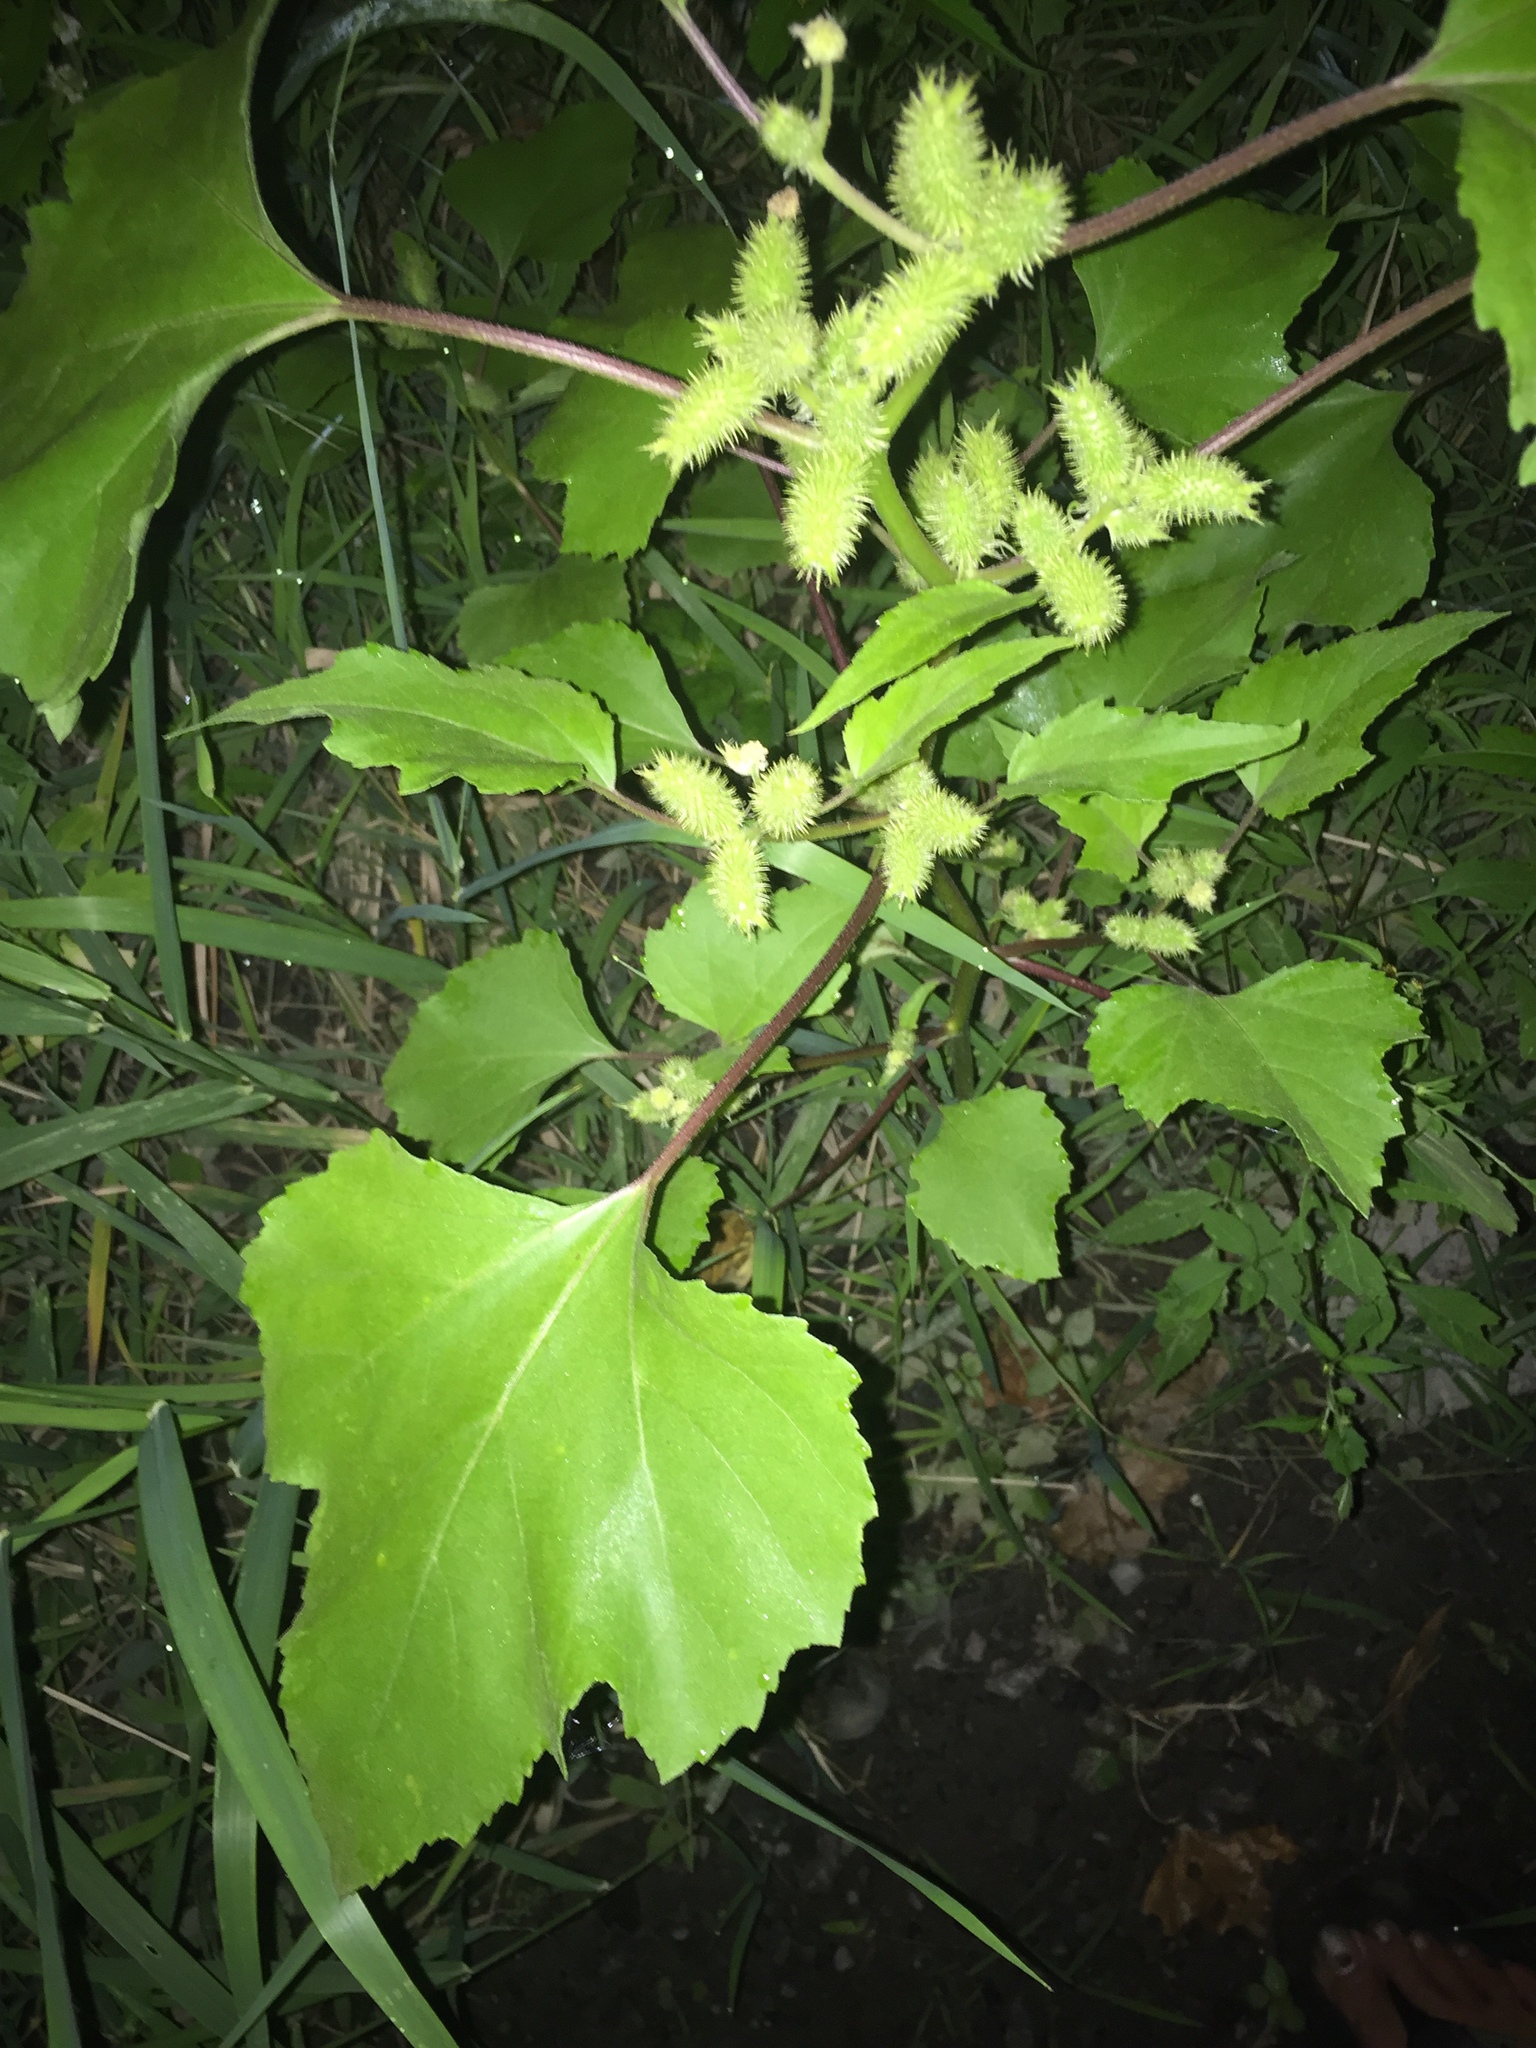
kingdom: Plantae
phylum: Tracheophyta
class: Magnoliopsida
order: Asterales
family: Asteraceae
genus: Xanthium
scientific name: Xanthium strumarium
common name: Rough cocklebur
